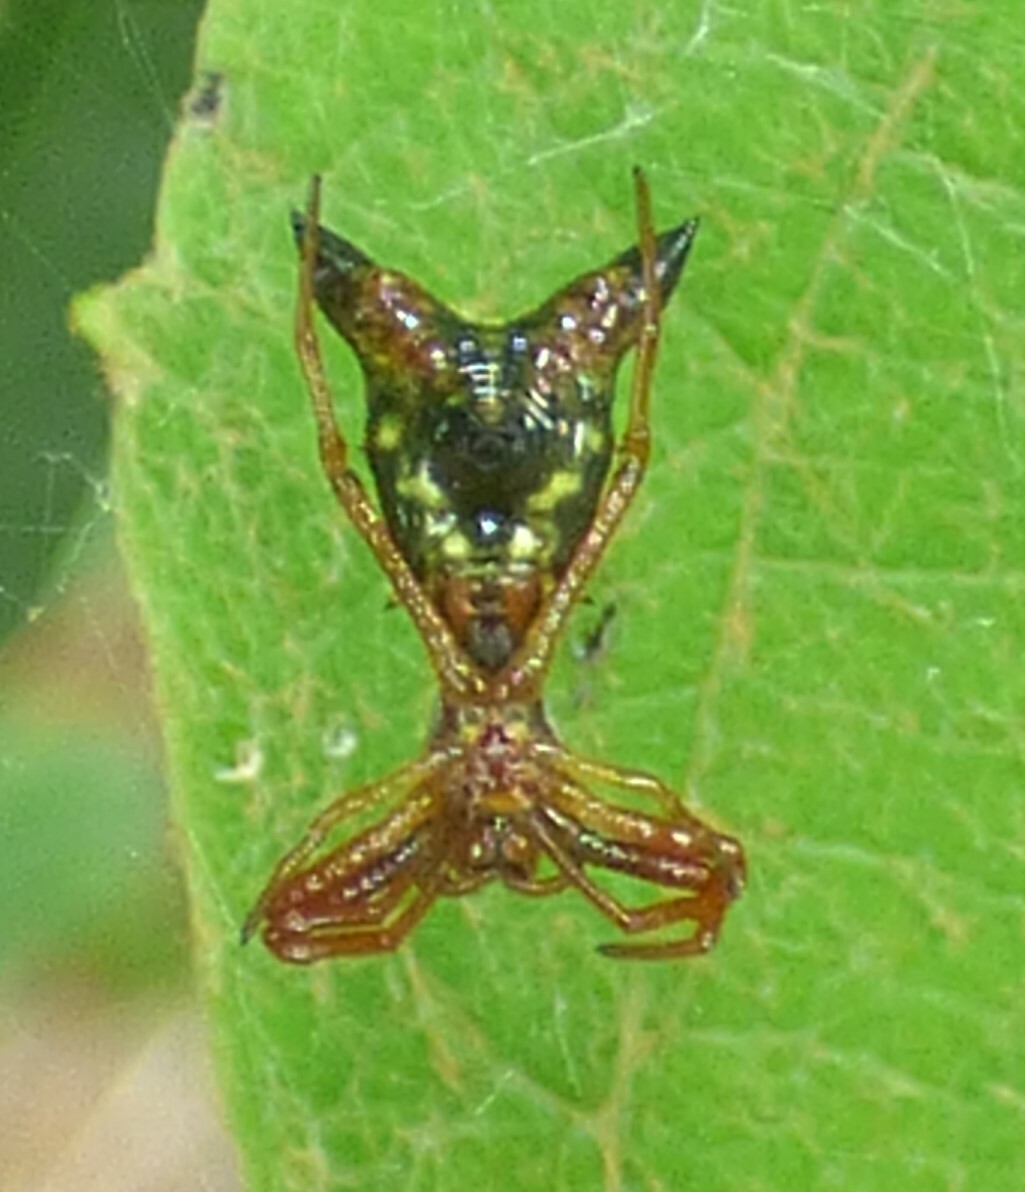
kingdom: Animalia
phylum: Arthropoda
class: Arachnida
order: Araneae
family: Araneidae
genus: Micrathena
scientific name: Micrathena sagittata
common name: Orb weavers
